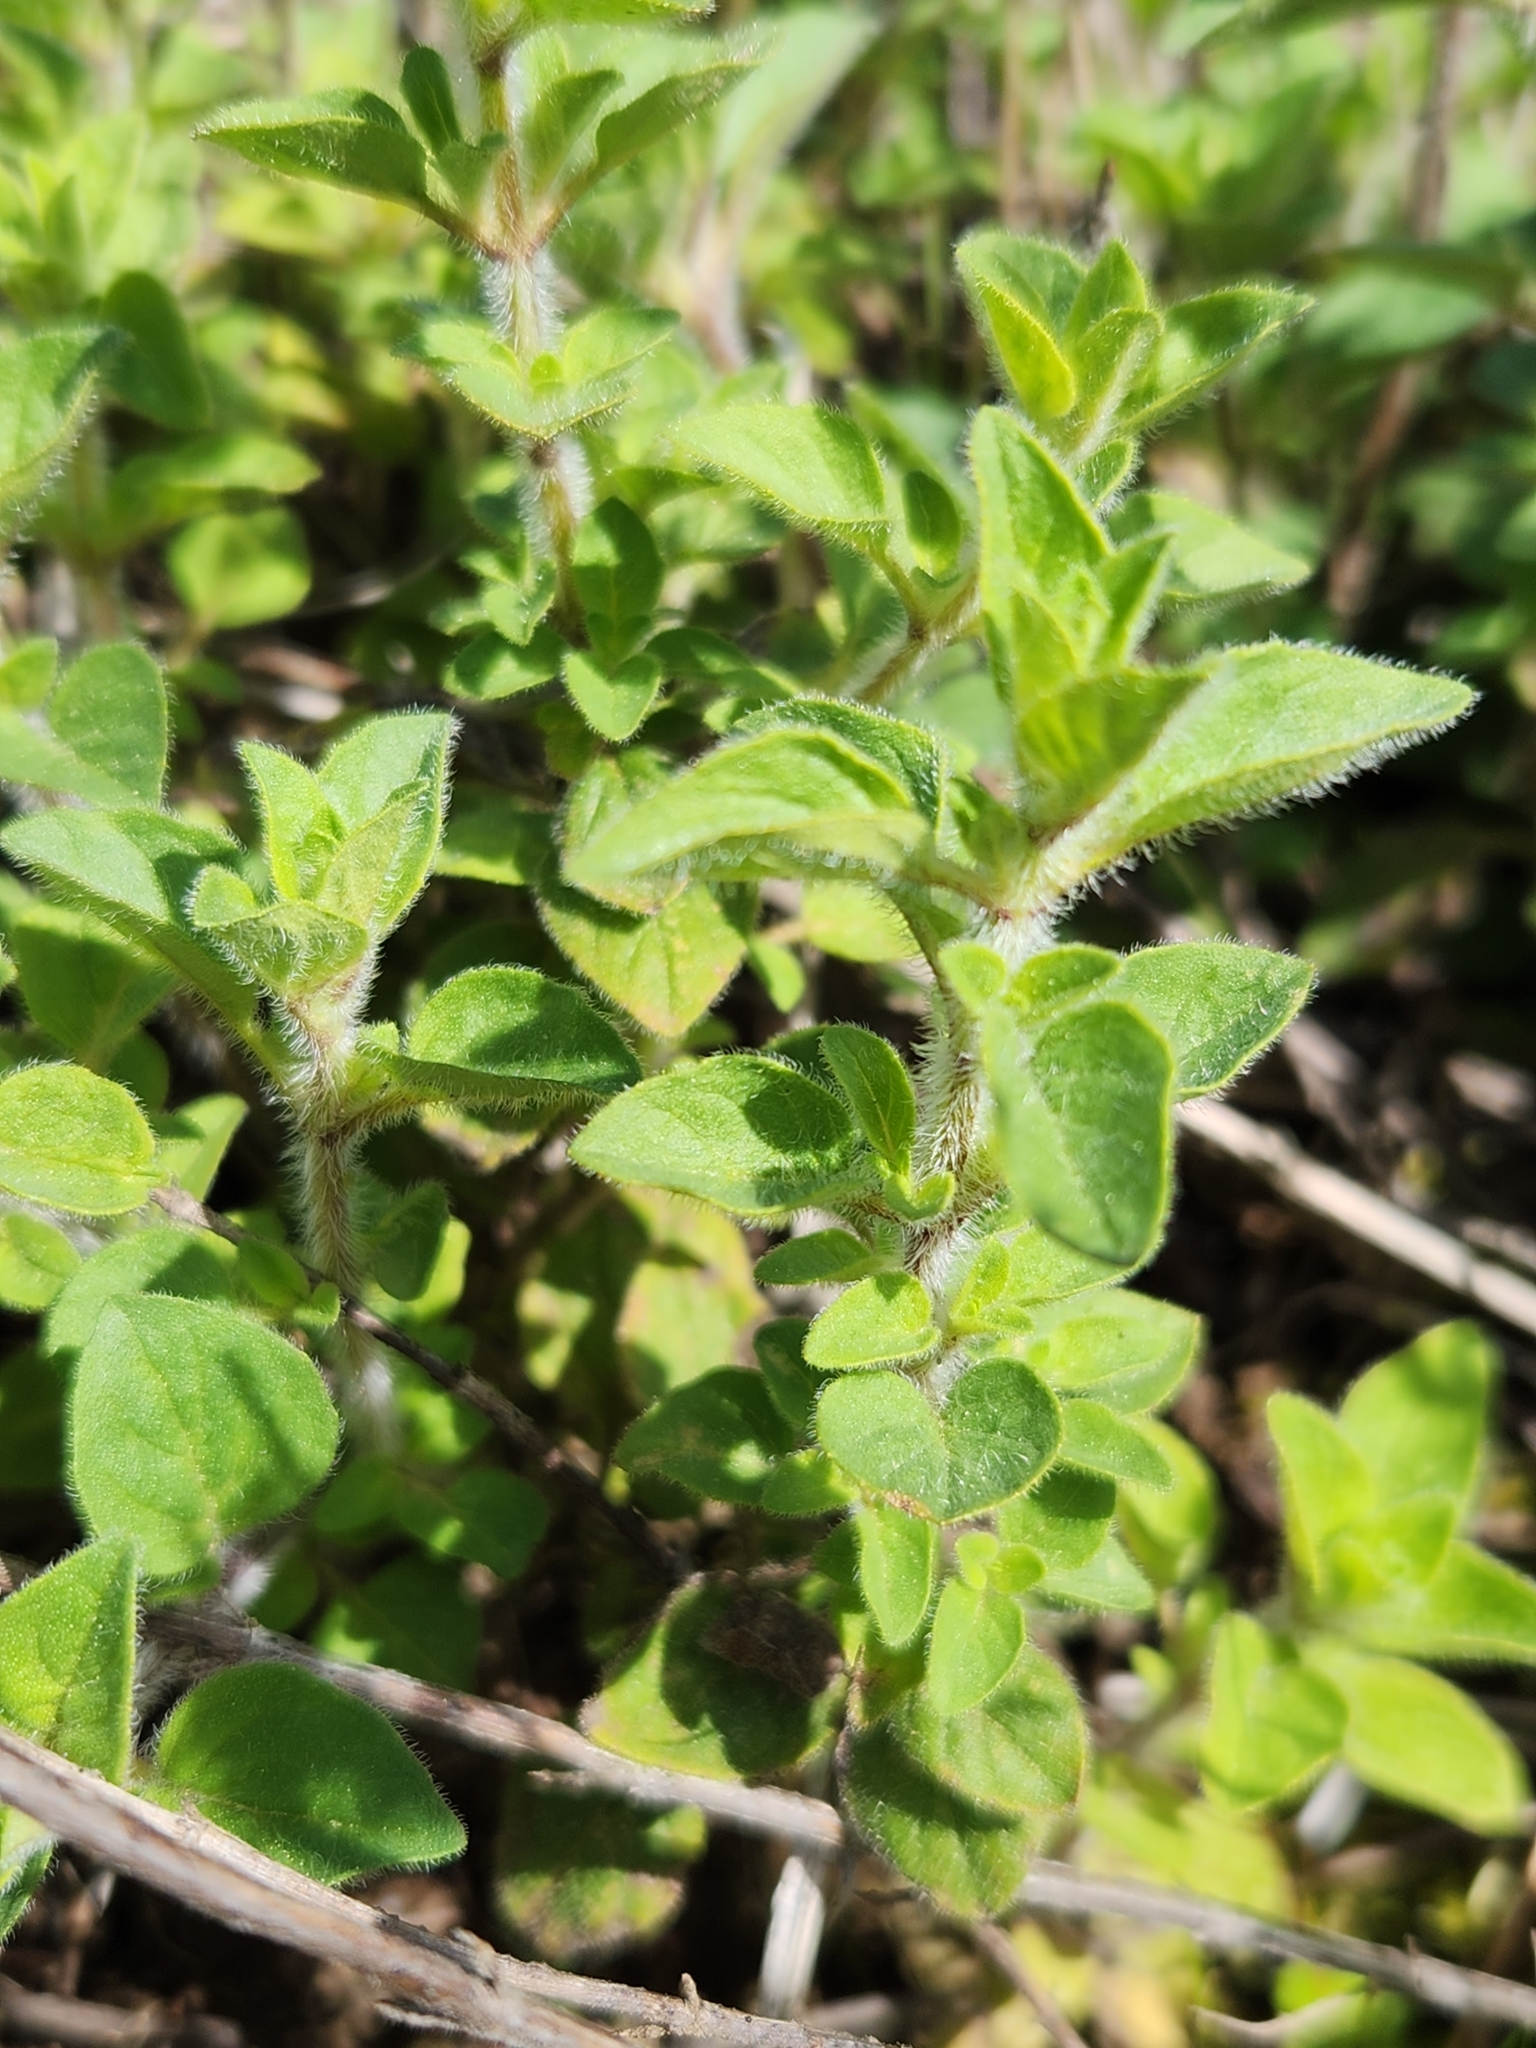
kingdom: Plantae
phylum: Tracheophyta
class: Magnoliopsida
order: Lamiales
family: Lamiaceae
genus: Origanum
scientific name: Origanum vulgare
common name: Wild marjoram
